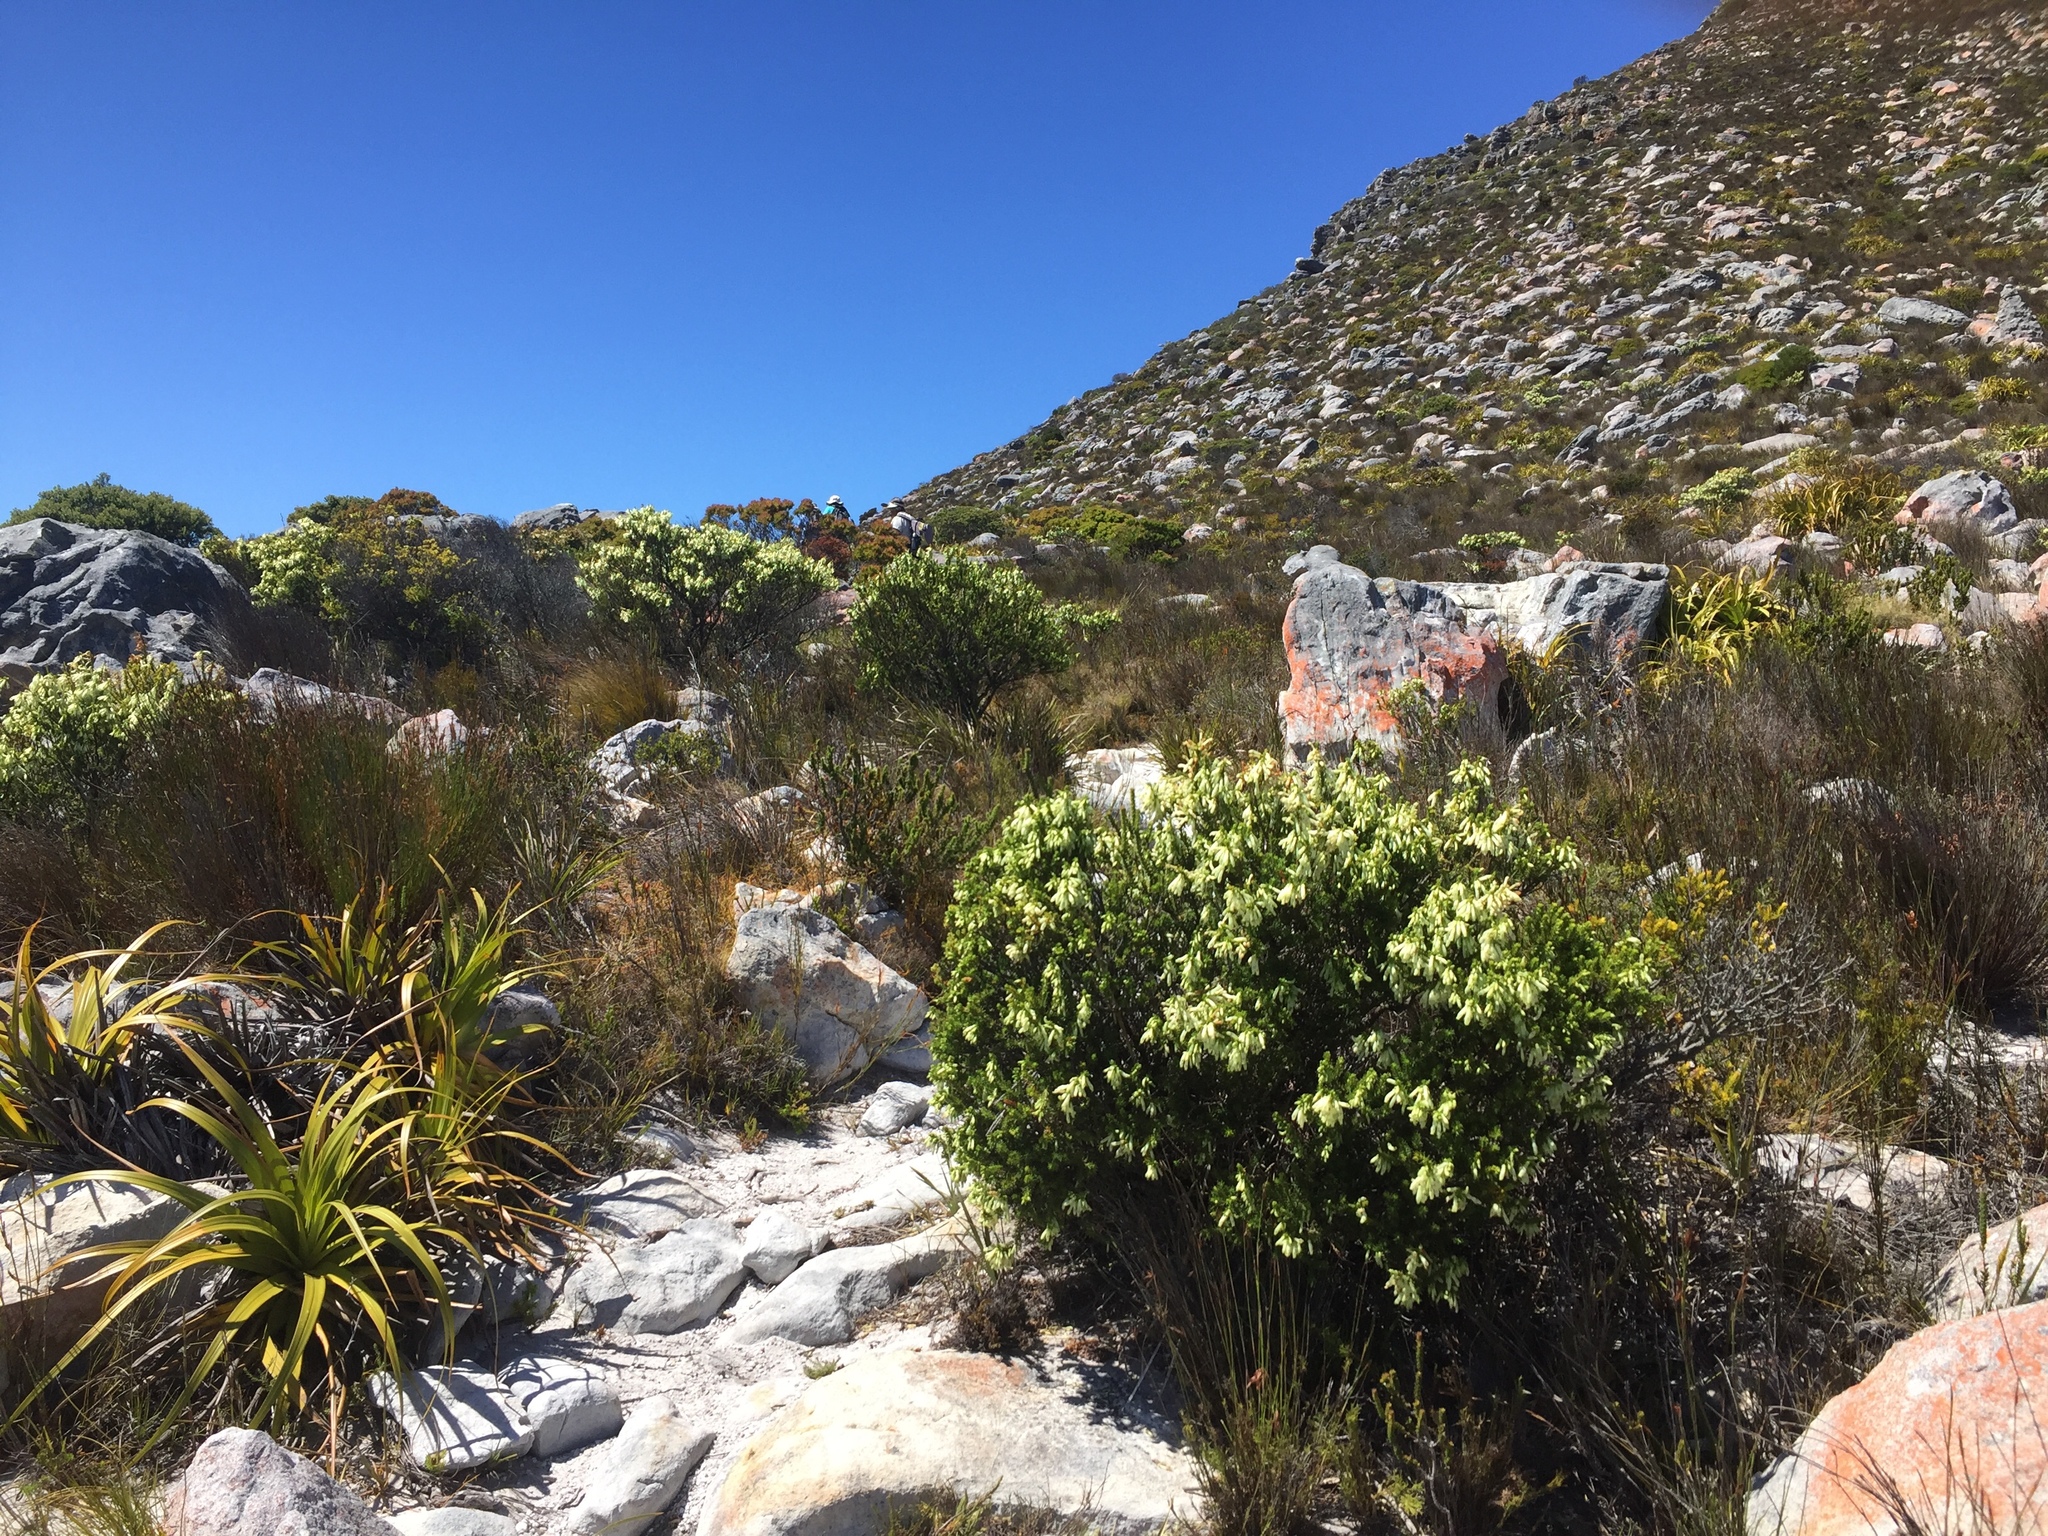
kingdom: Plantae
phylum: Tracheophyta
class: Magnoliopsida
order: Ericales
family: Ericaceae
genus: Erica
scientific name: Erica mammosa
